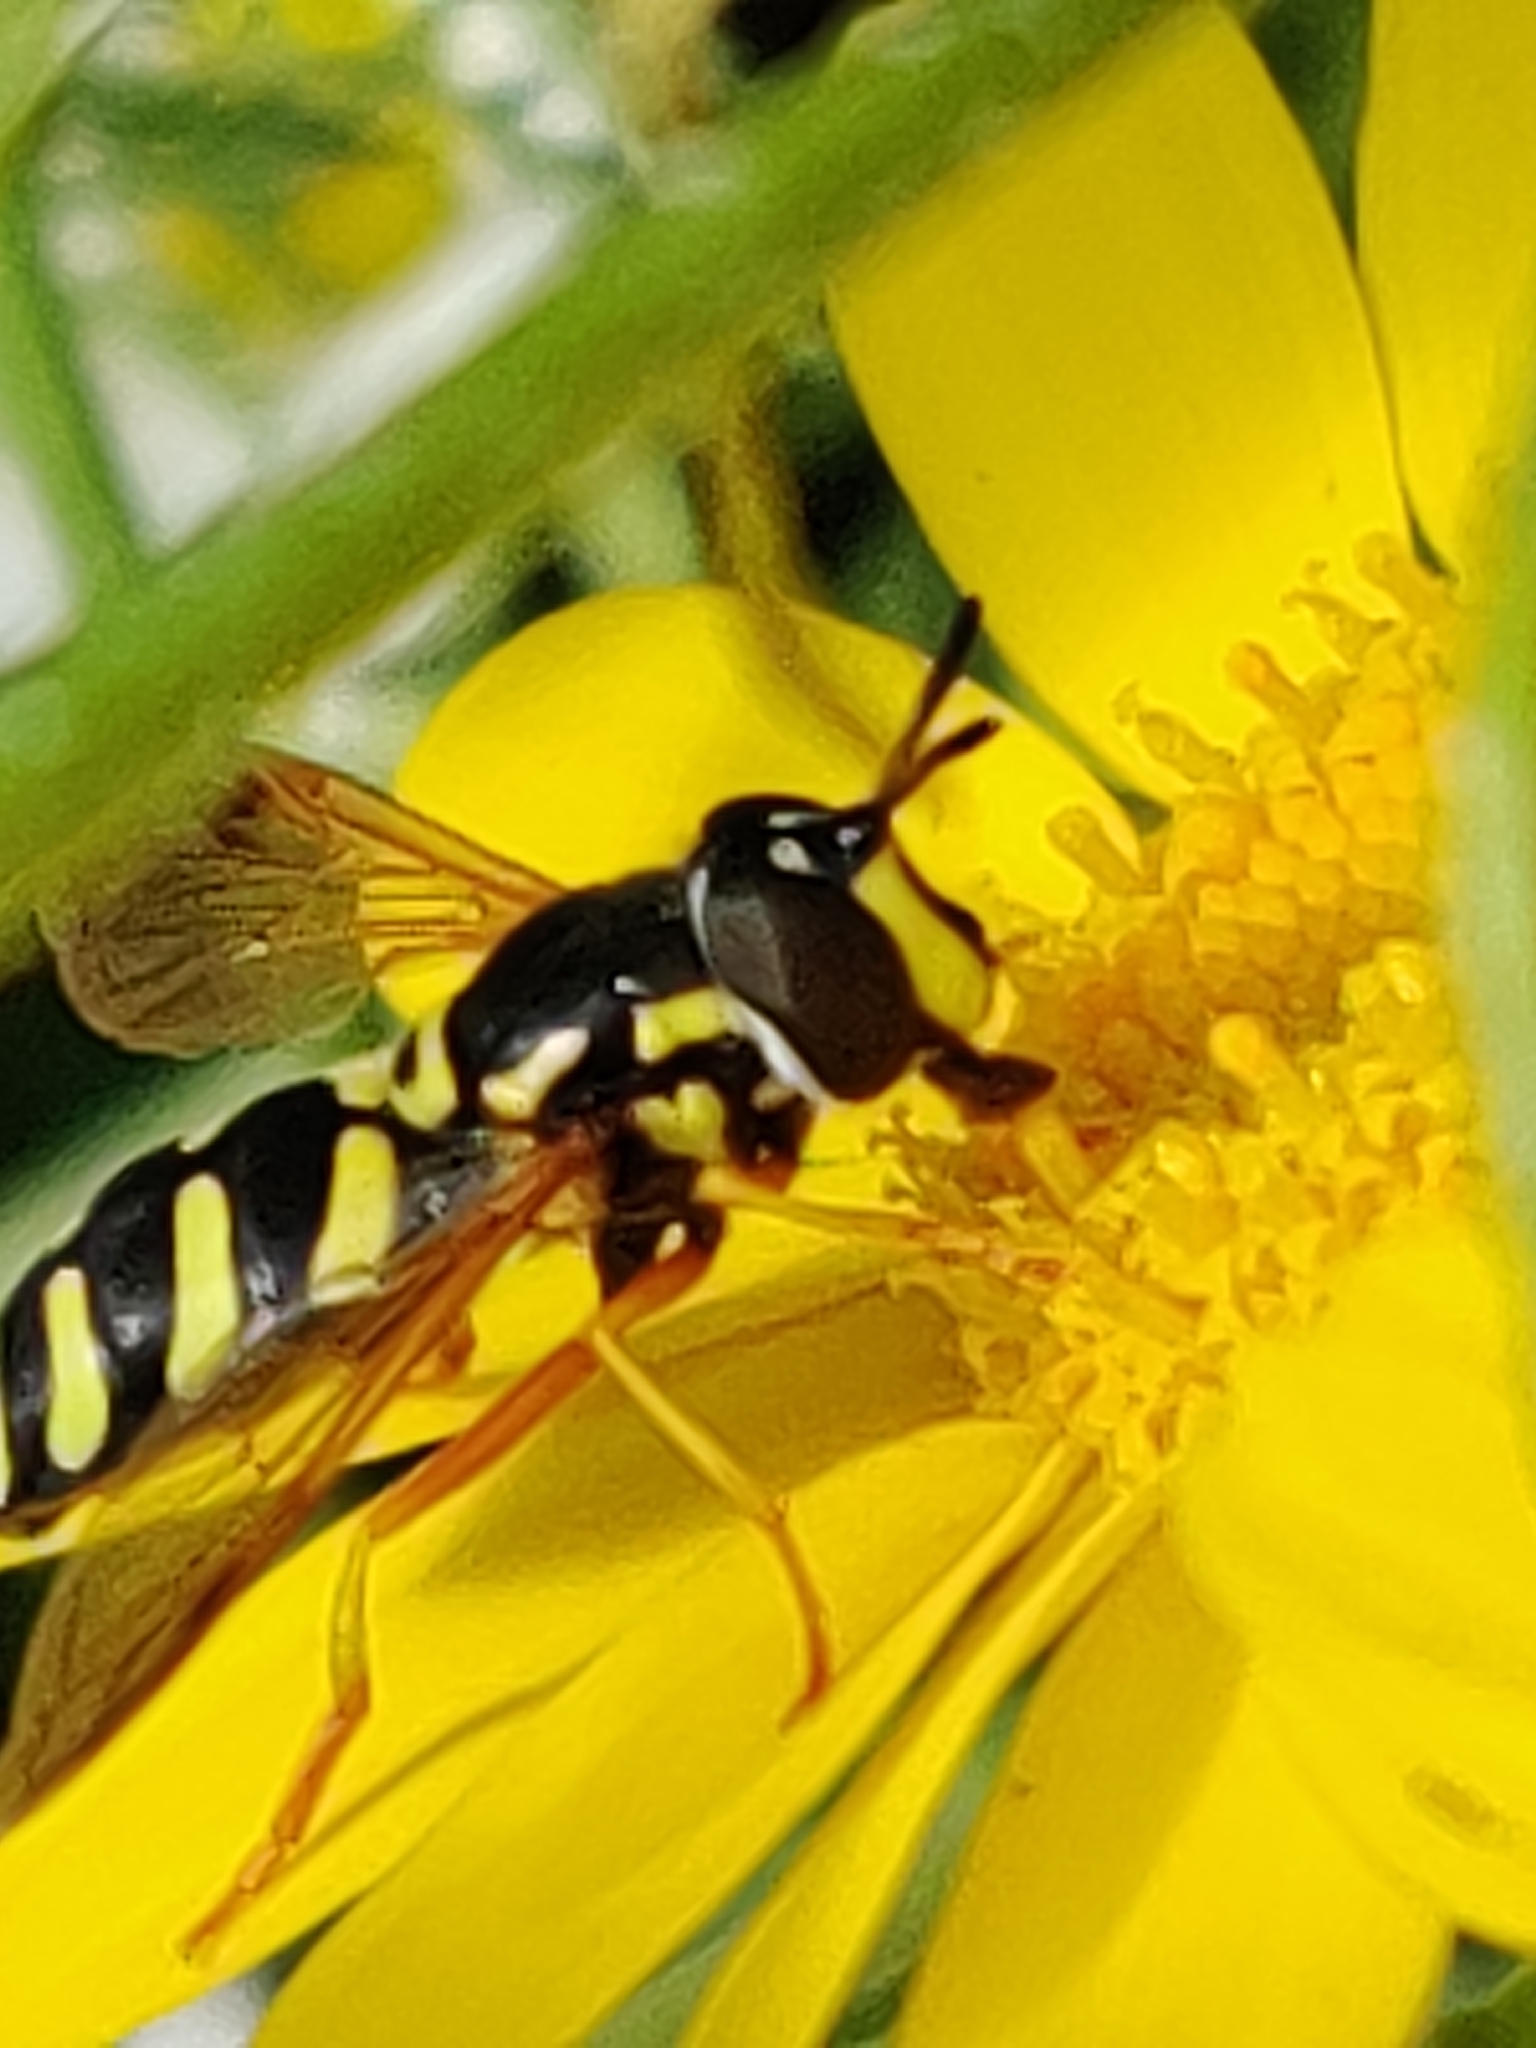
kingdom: Animalia
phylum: Arthropoda
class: Insecta
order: Diptera
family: Syrphidae
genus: Chrysotoxum
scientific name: Chrysotoxum festivum
